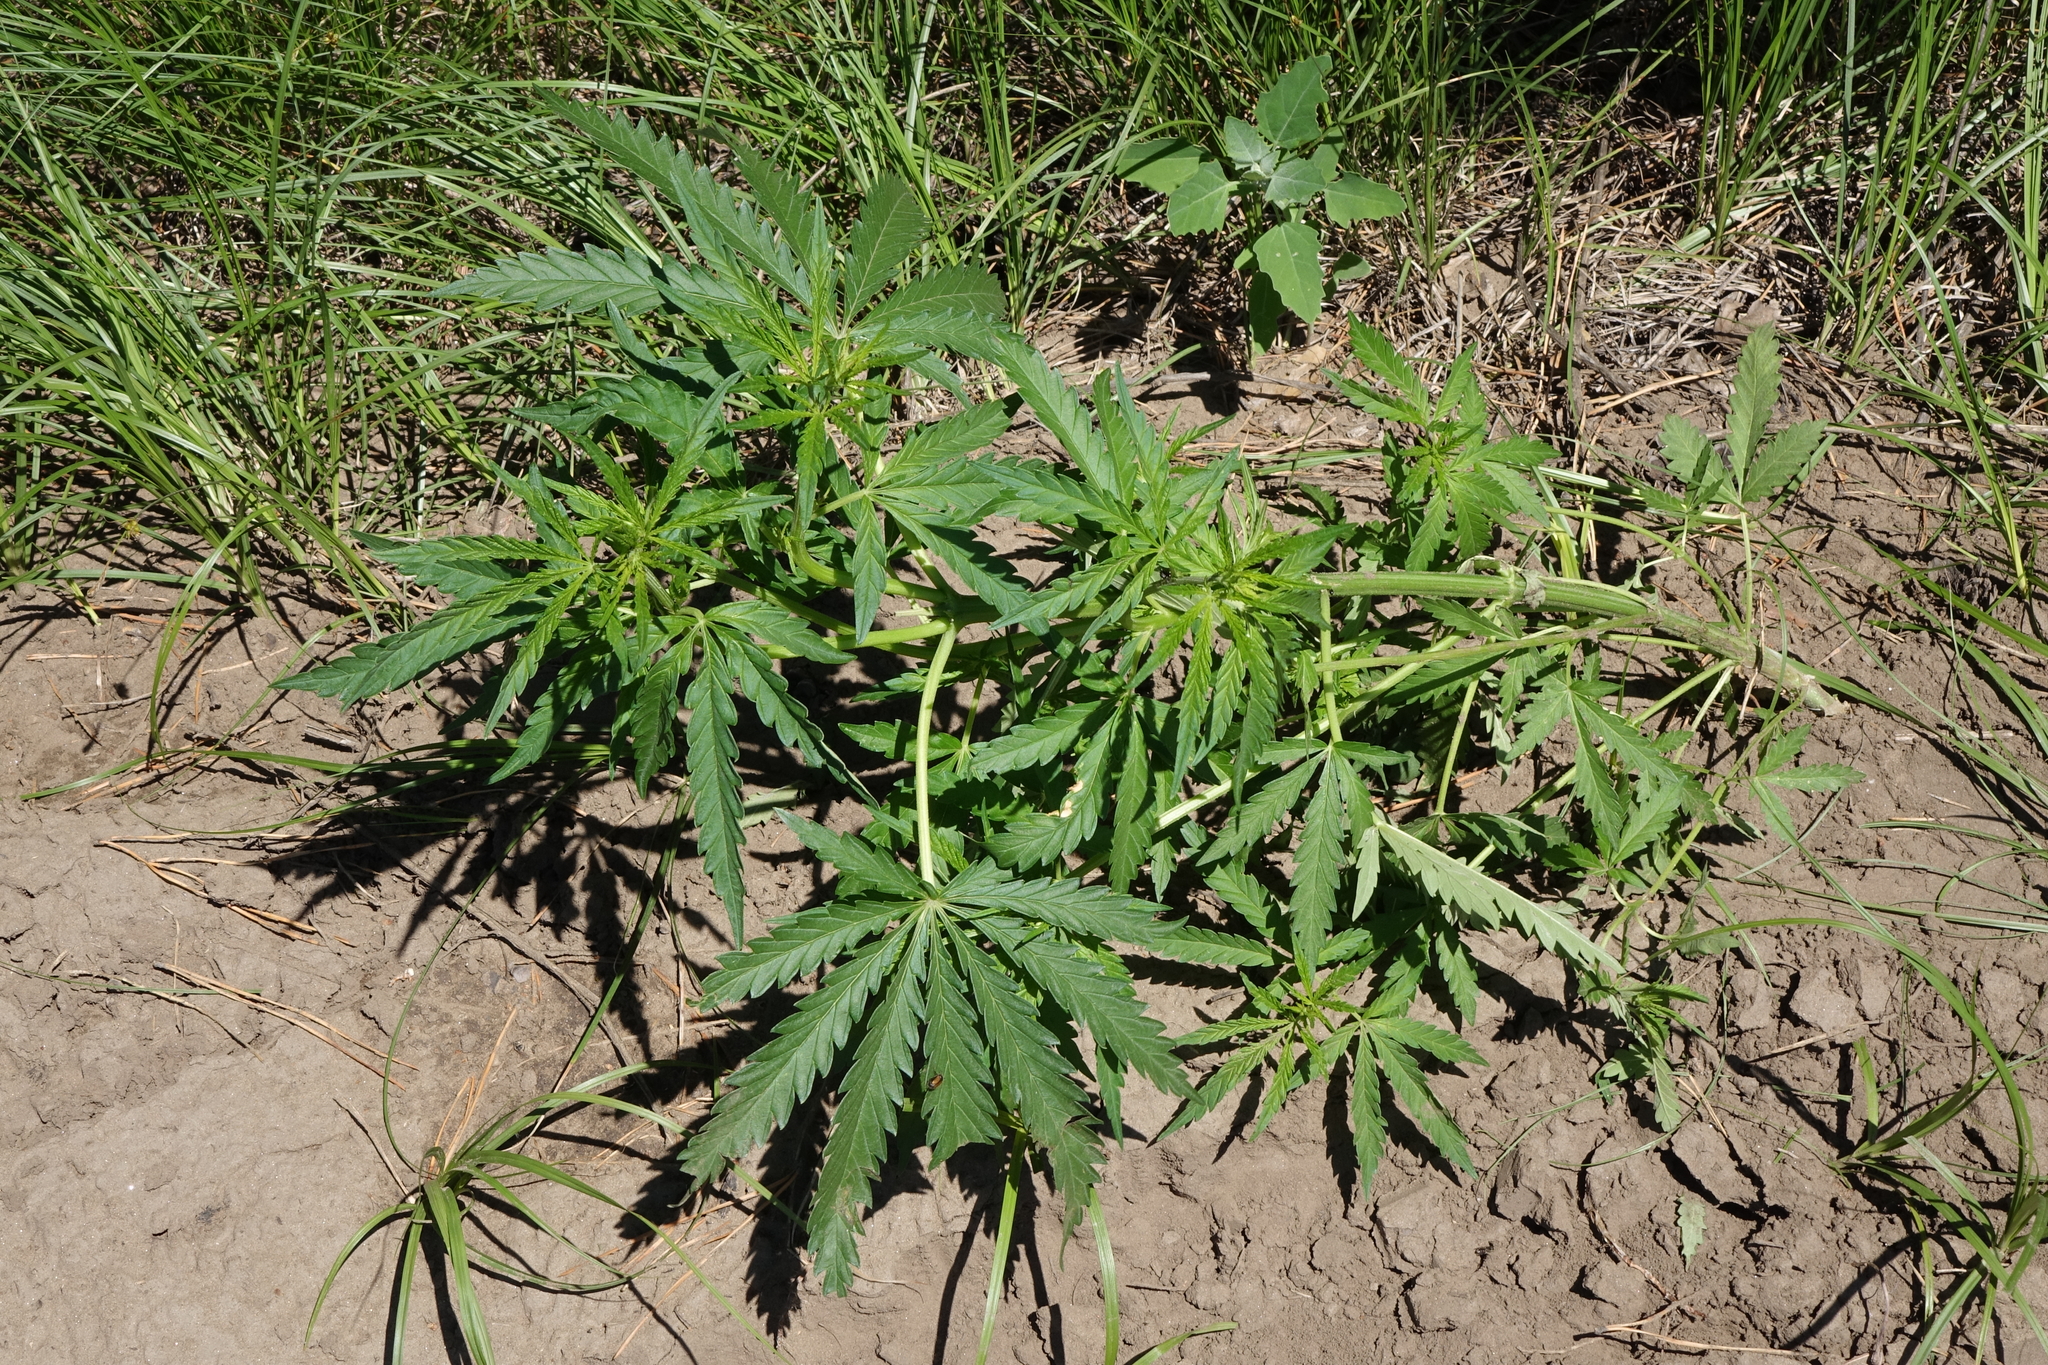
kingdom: Plantae
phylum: Tracheophyta
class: Magnoliopsida
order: Rosales
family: Cannabaceae
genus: Cannabis
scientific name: Cannabis sativa
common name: Hemp
